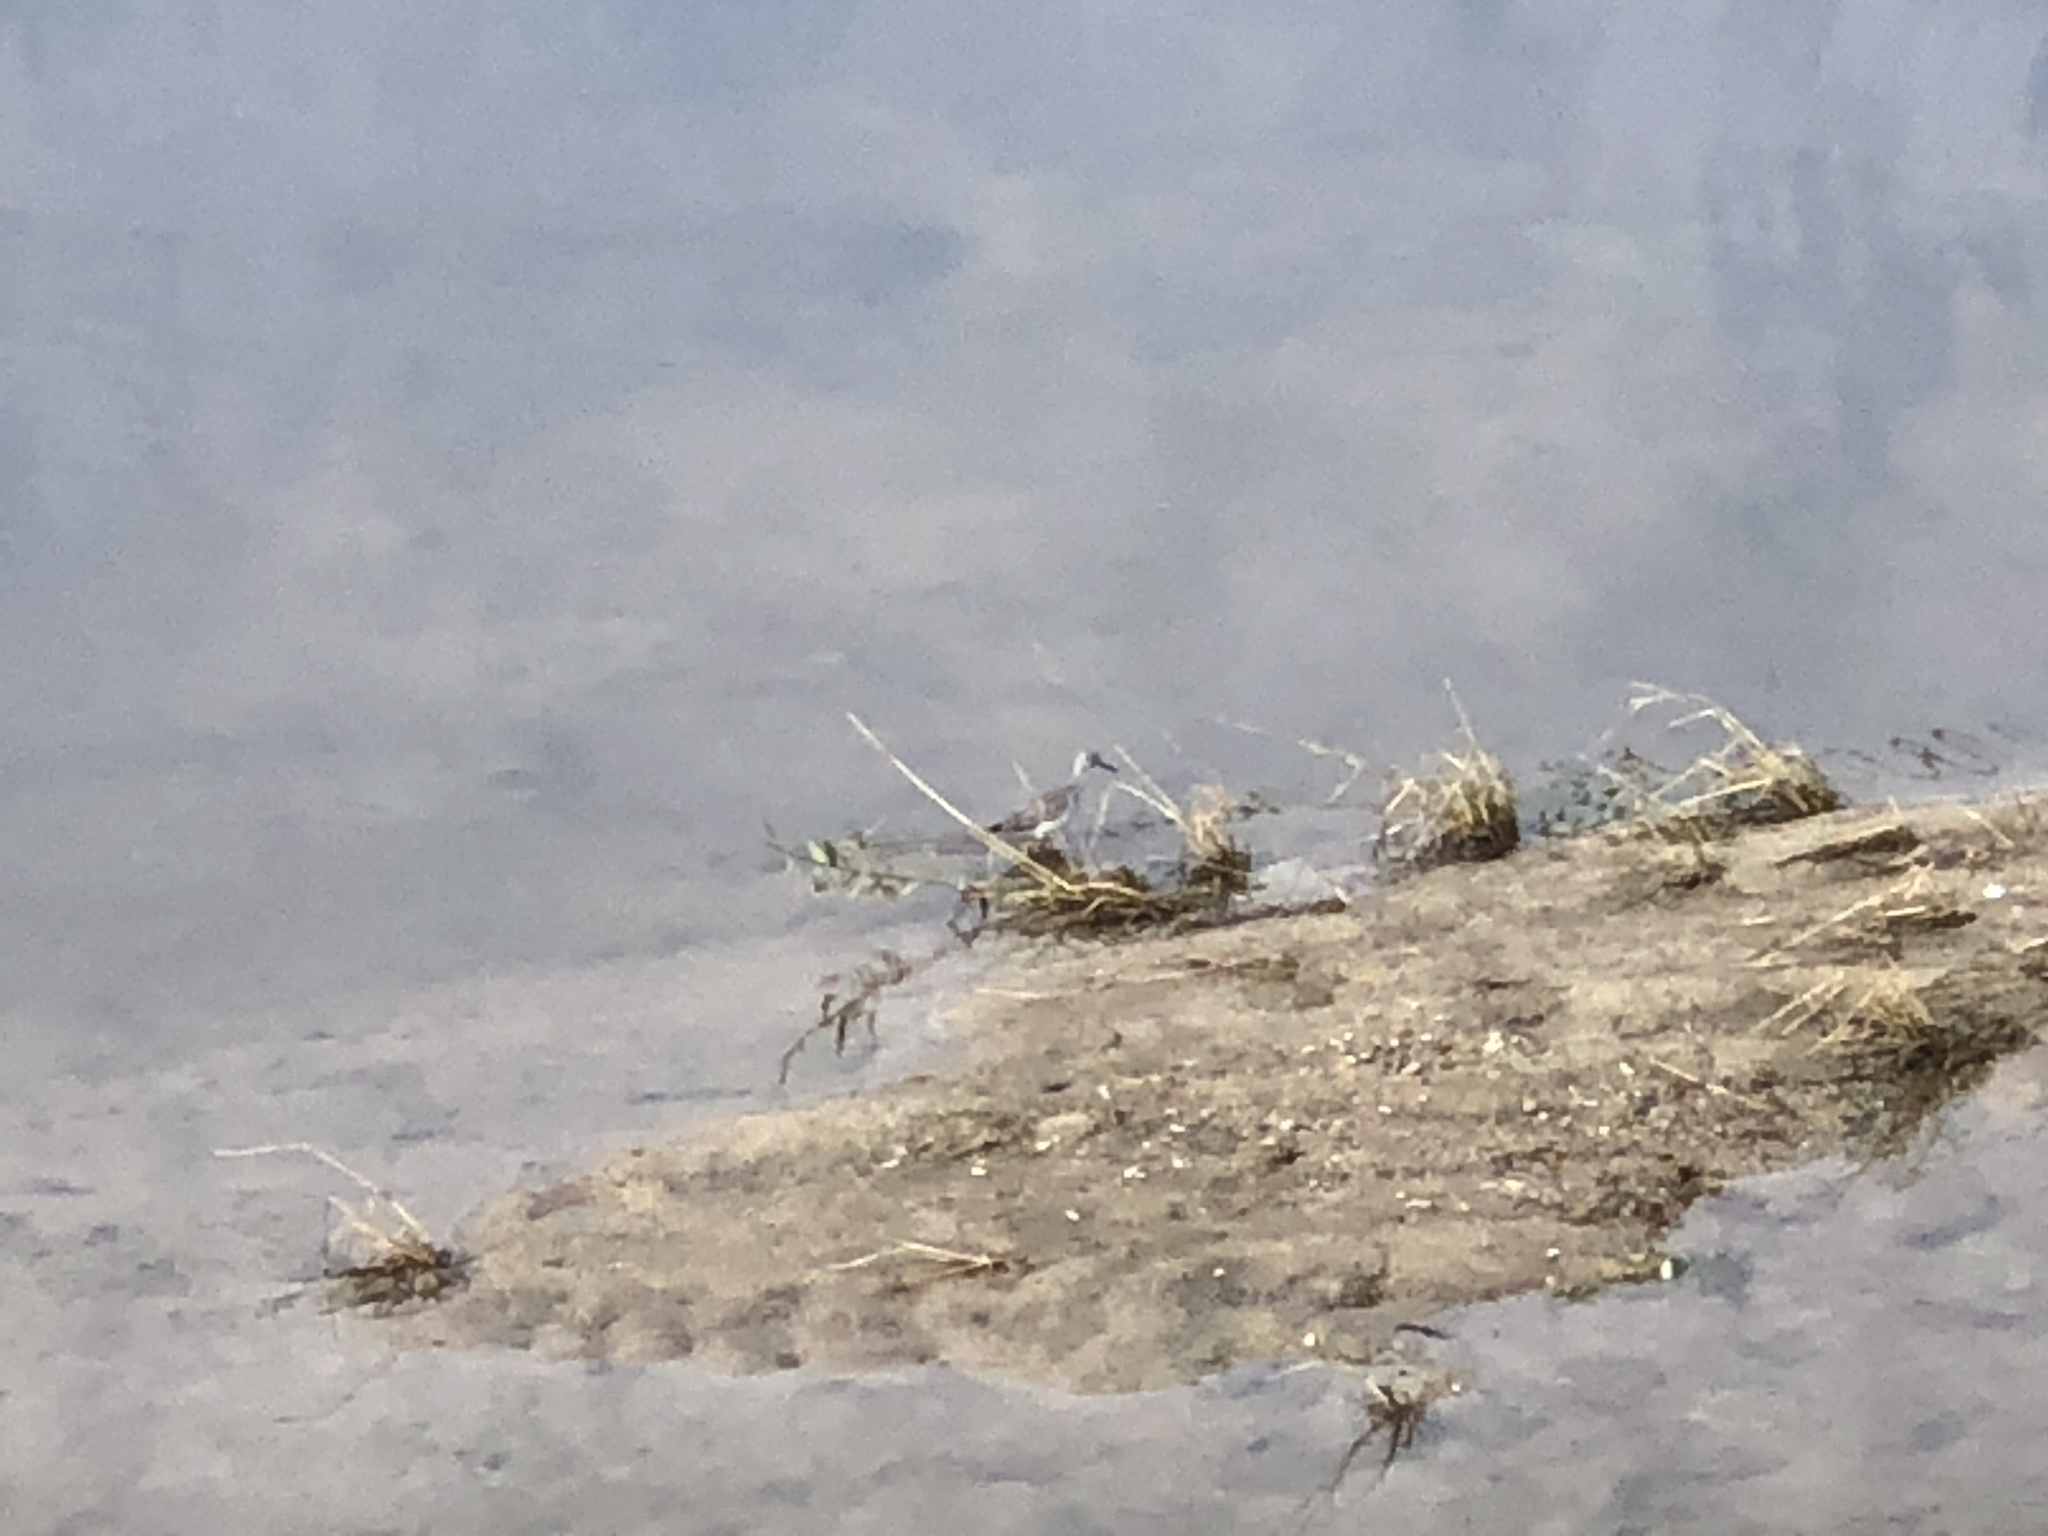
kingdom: Animalia
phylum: Chordata
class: Aves
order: Charadriiformes
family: Scolopacidae
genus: Tringa
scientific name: Tringa
